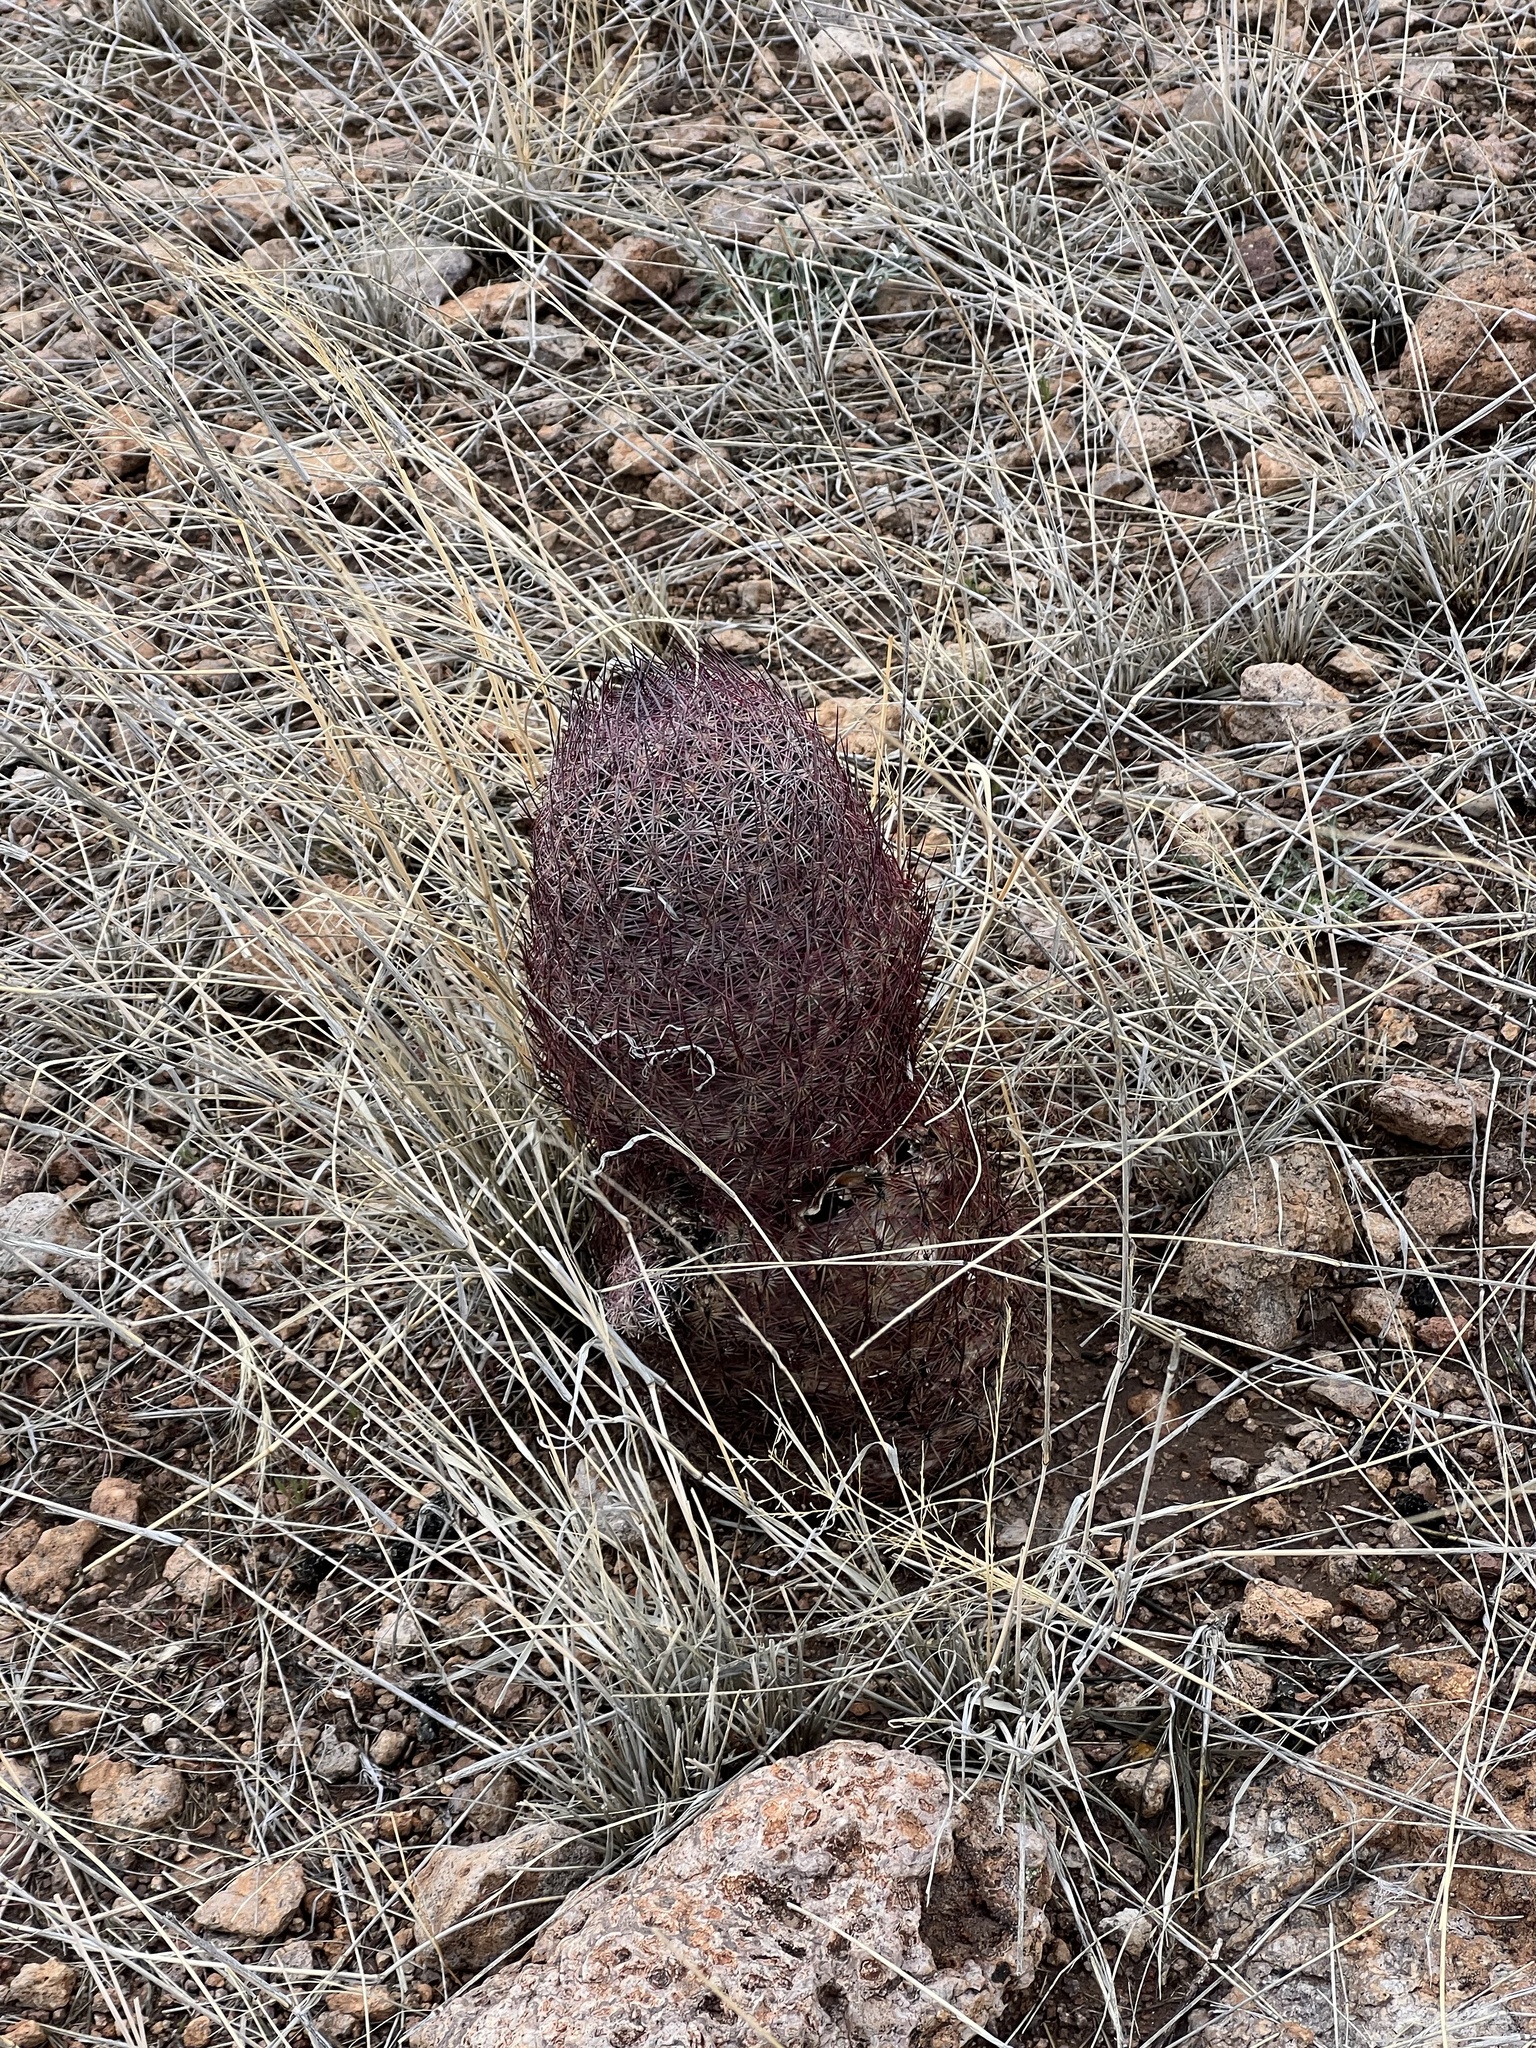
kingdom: Plantae
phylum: Tracheophyta
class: Magnoliopsida
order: Caryophyllales
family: Cactaceae
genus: Sclerocactus
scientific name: Sclerocactus johnsonii
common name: Eight-spine fishhook cactus
